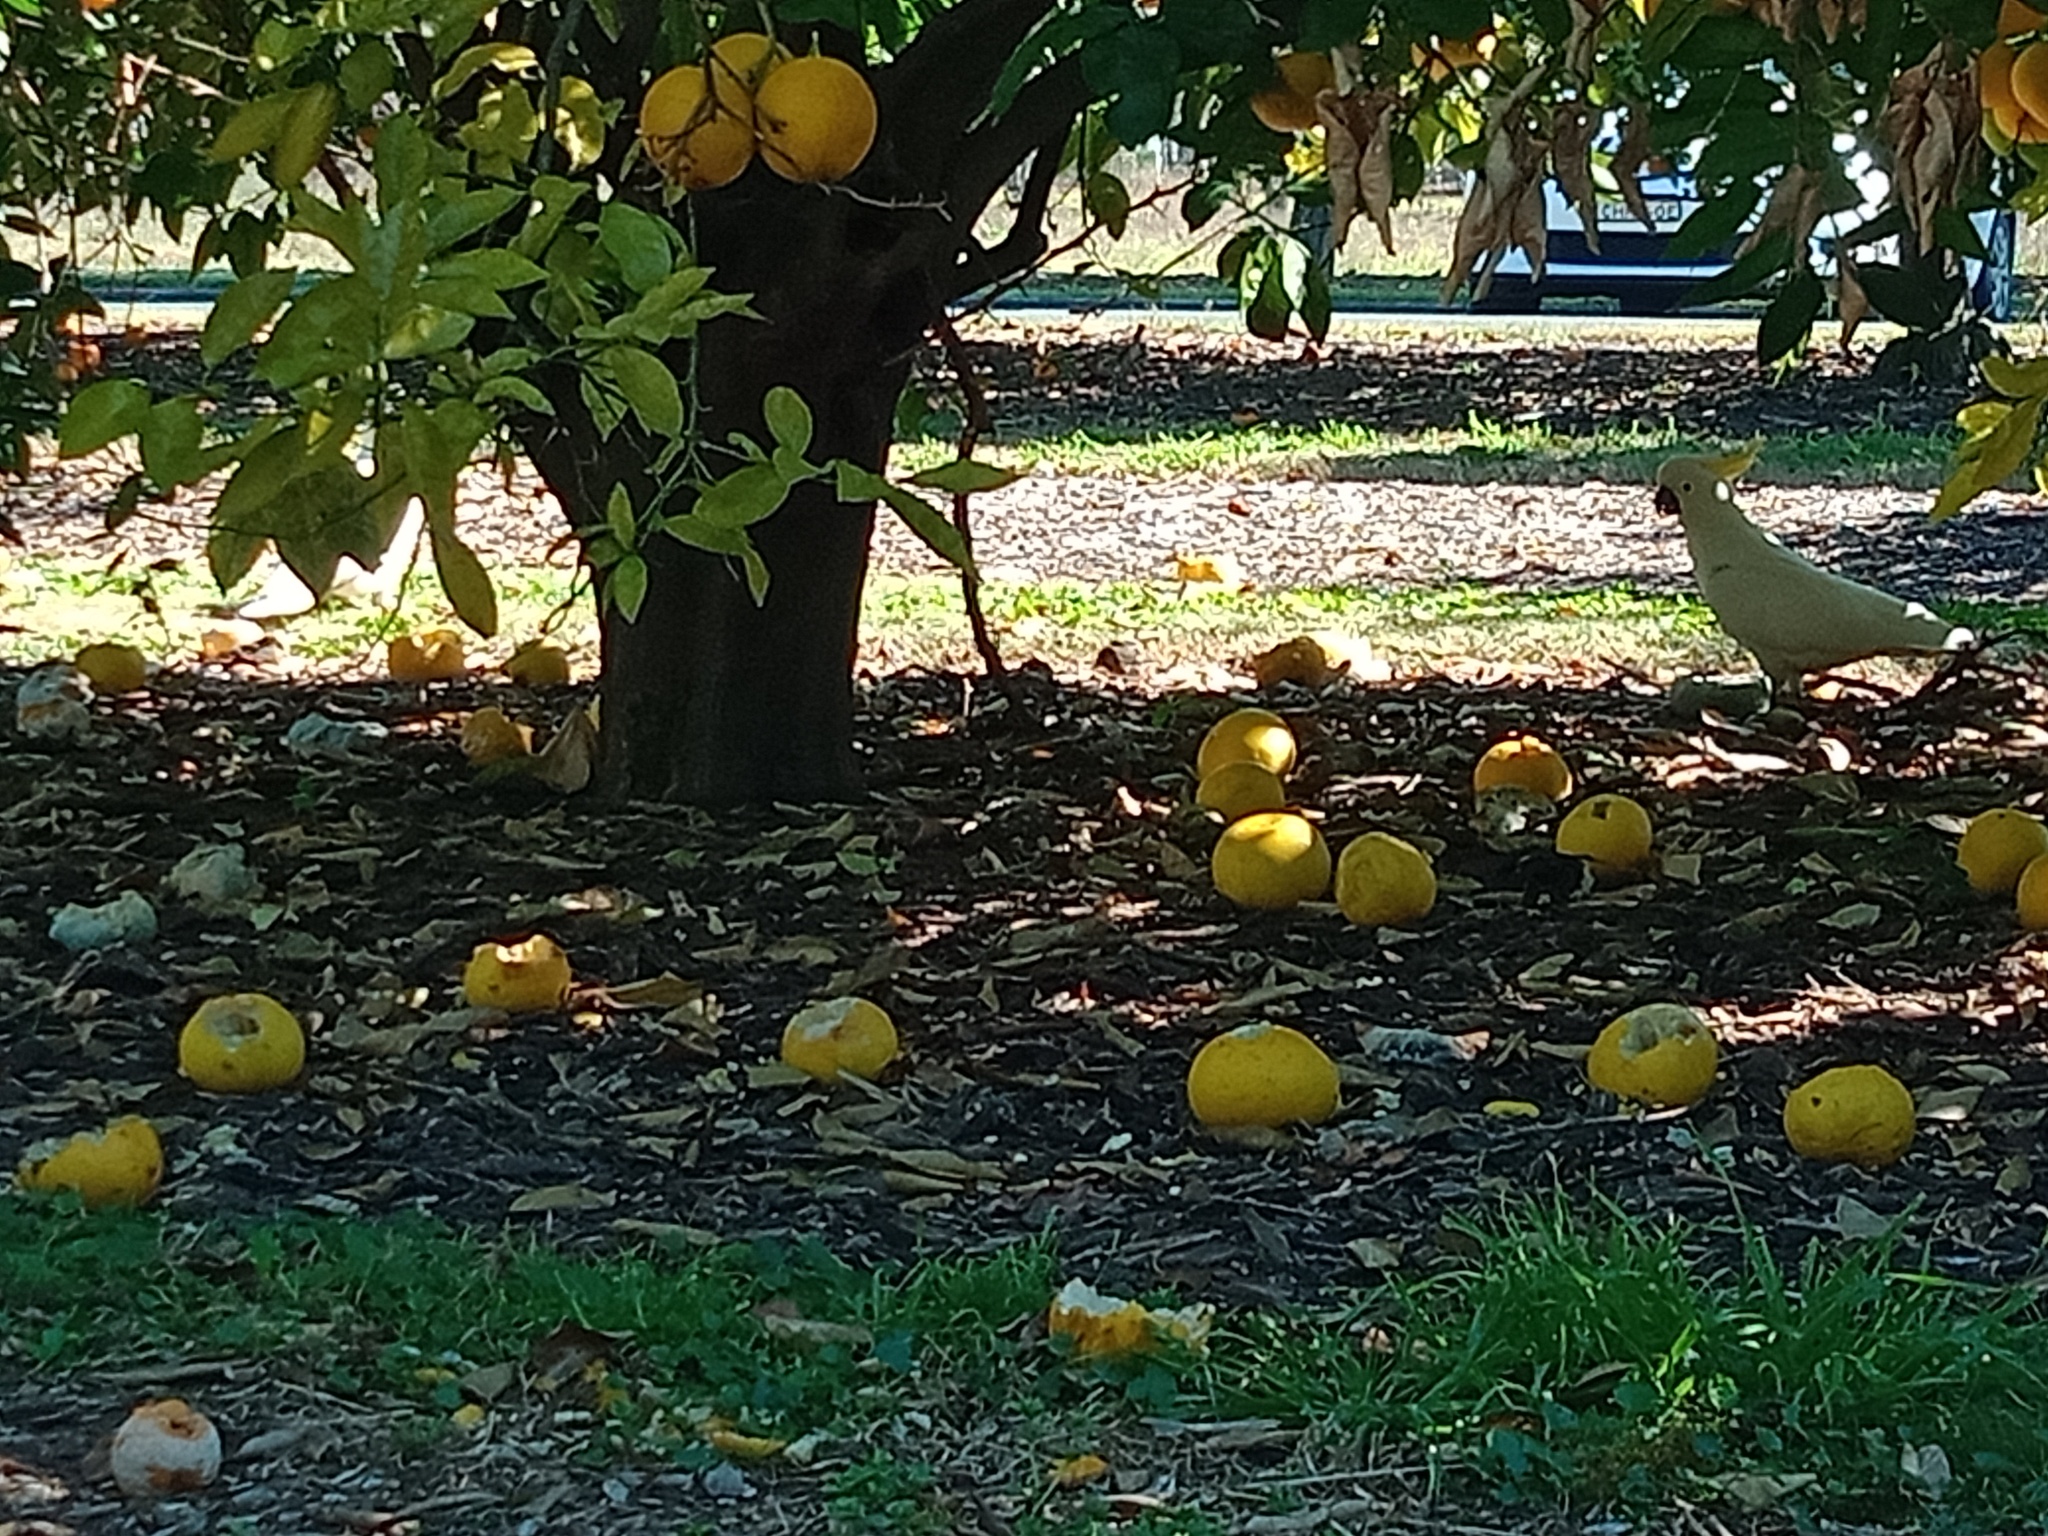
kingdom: Animalia
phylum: Chordata
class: Aves
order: Psittaciformes
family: Psittacidae
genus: Cacatua
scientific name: Cacatua galerita
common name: Sulphur-crested cockatoo
